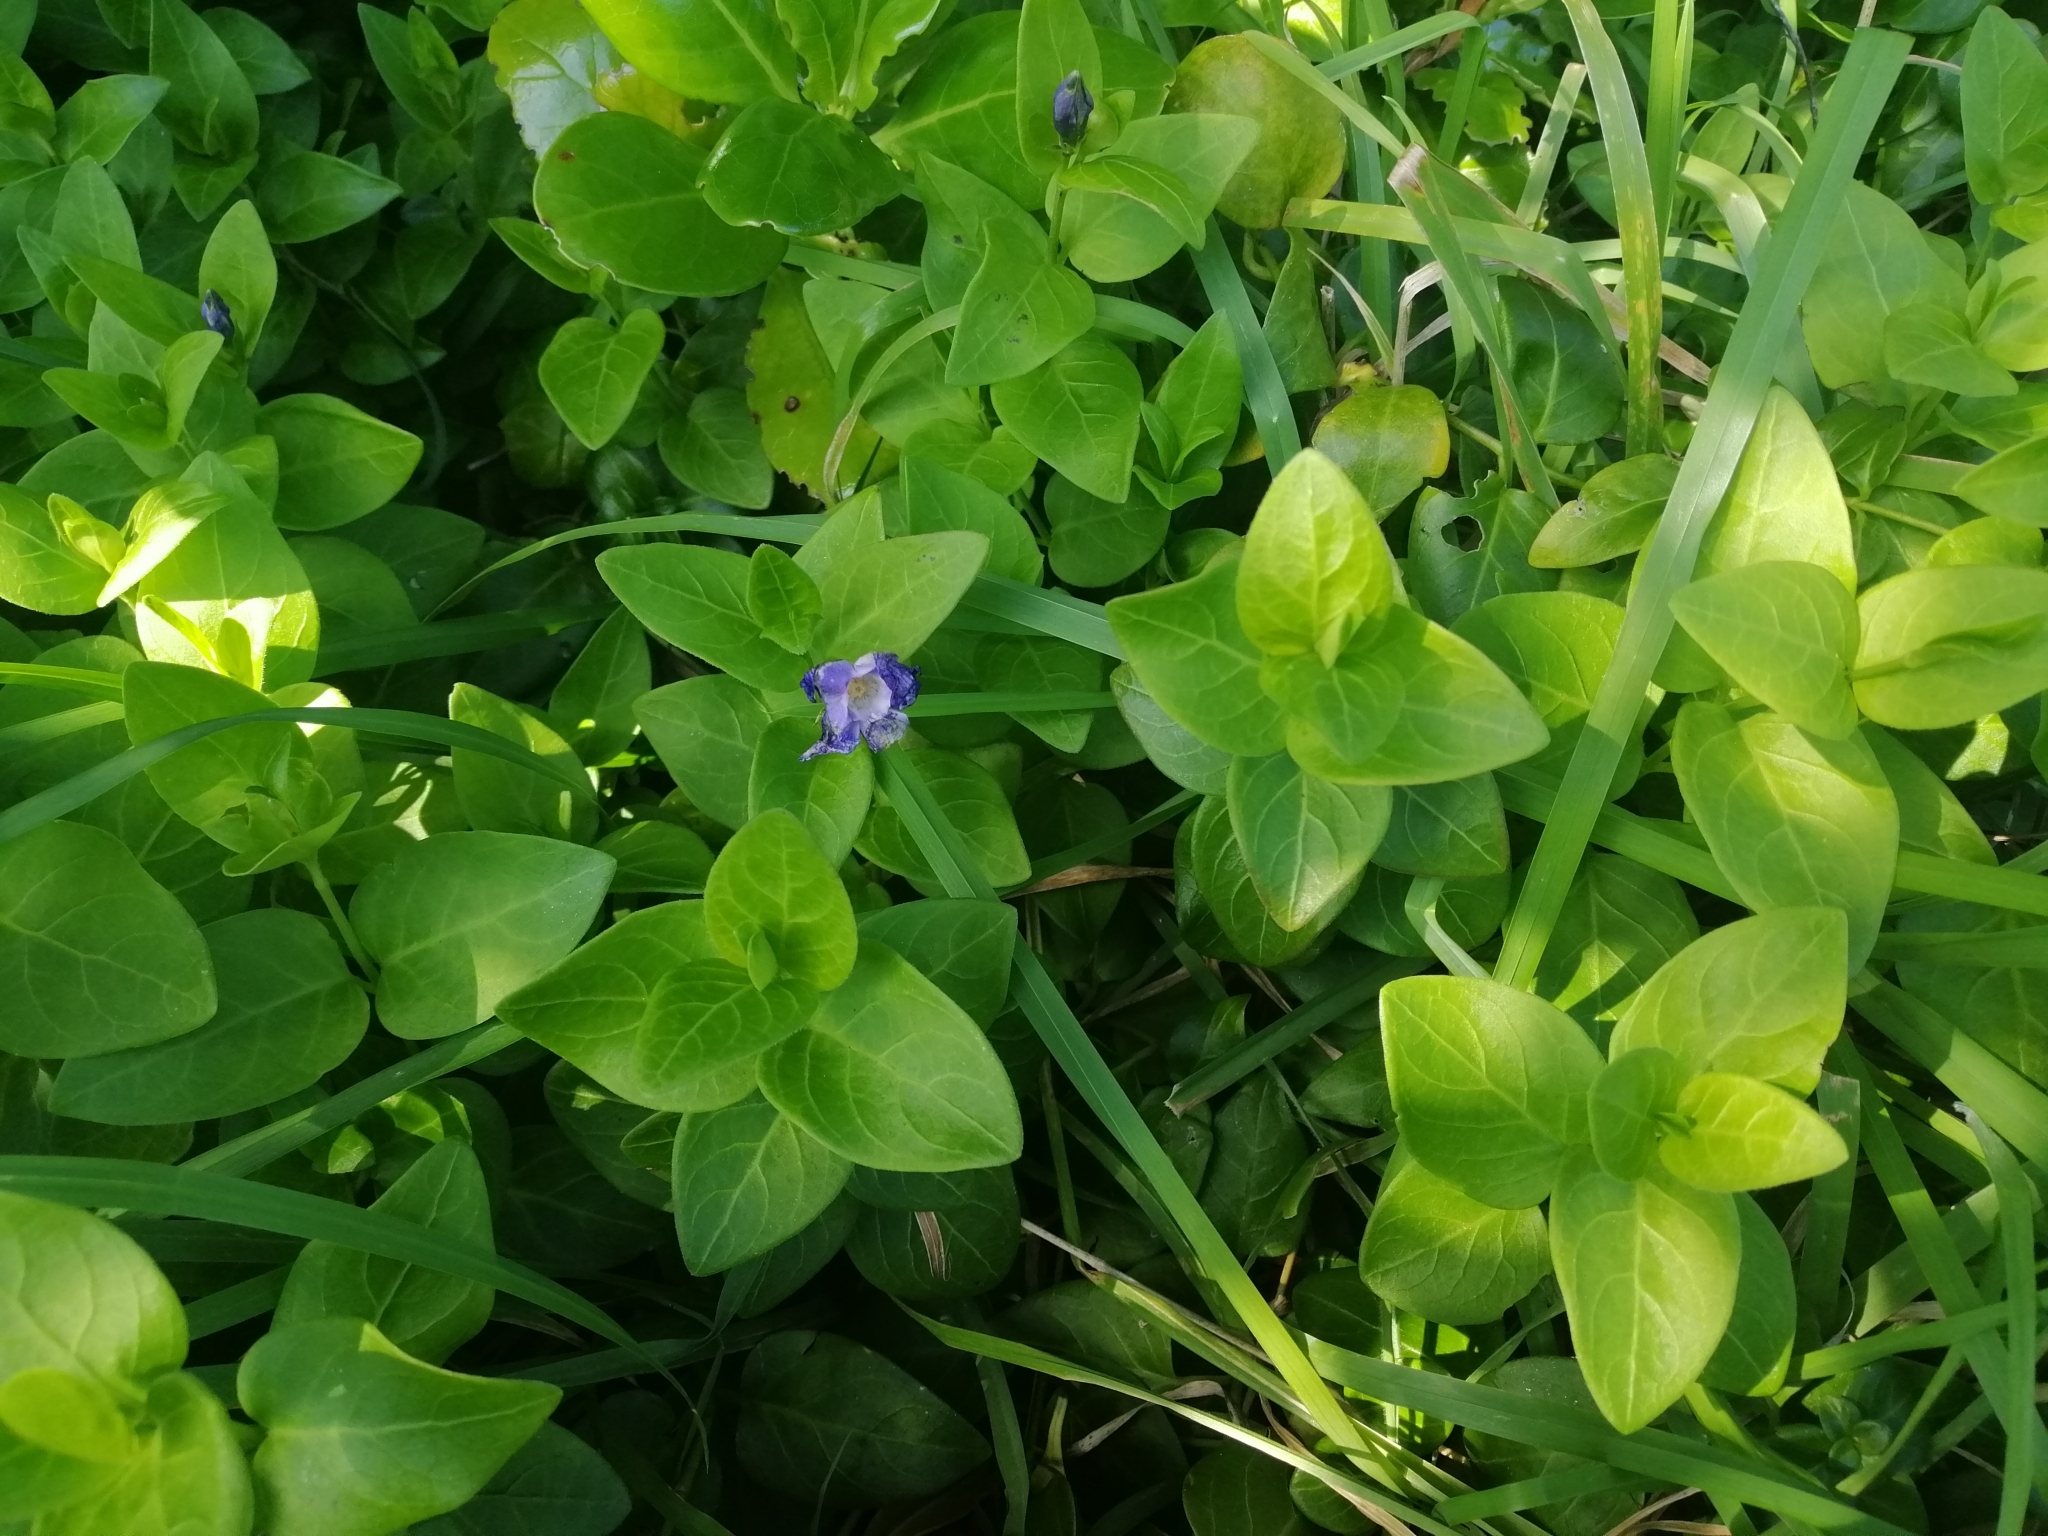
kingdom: Plantae
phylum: Tracheophyta
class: Magnoliopsida
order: Gentianales
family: Apocynaceae
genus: Vinca
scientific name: Vinca major
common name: Greater periwinkle
